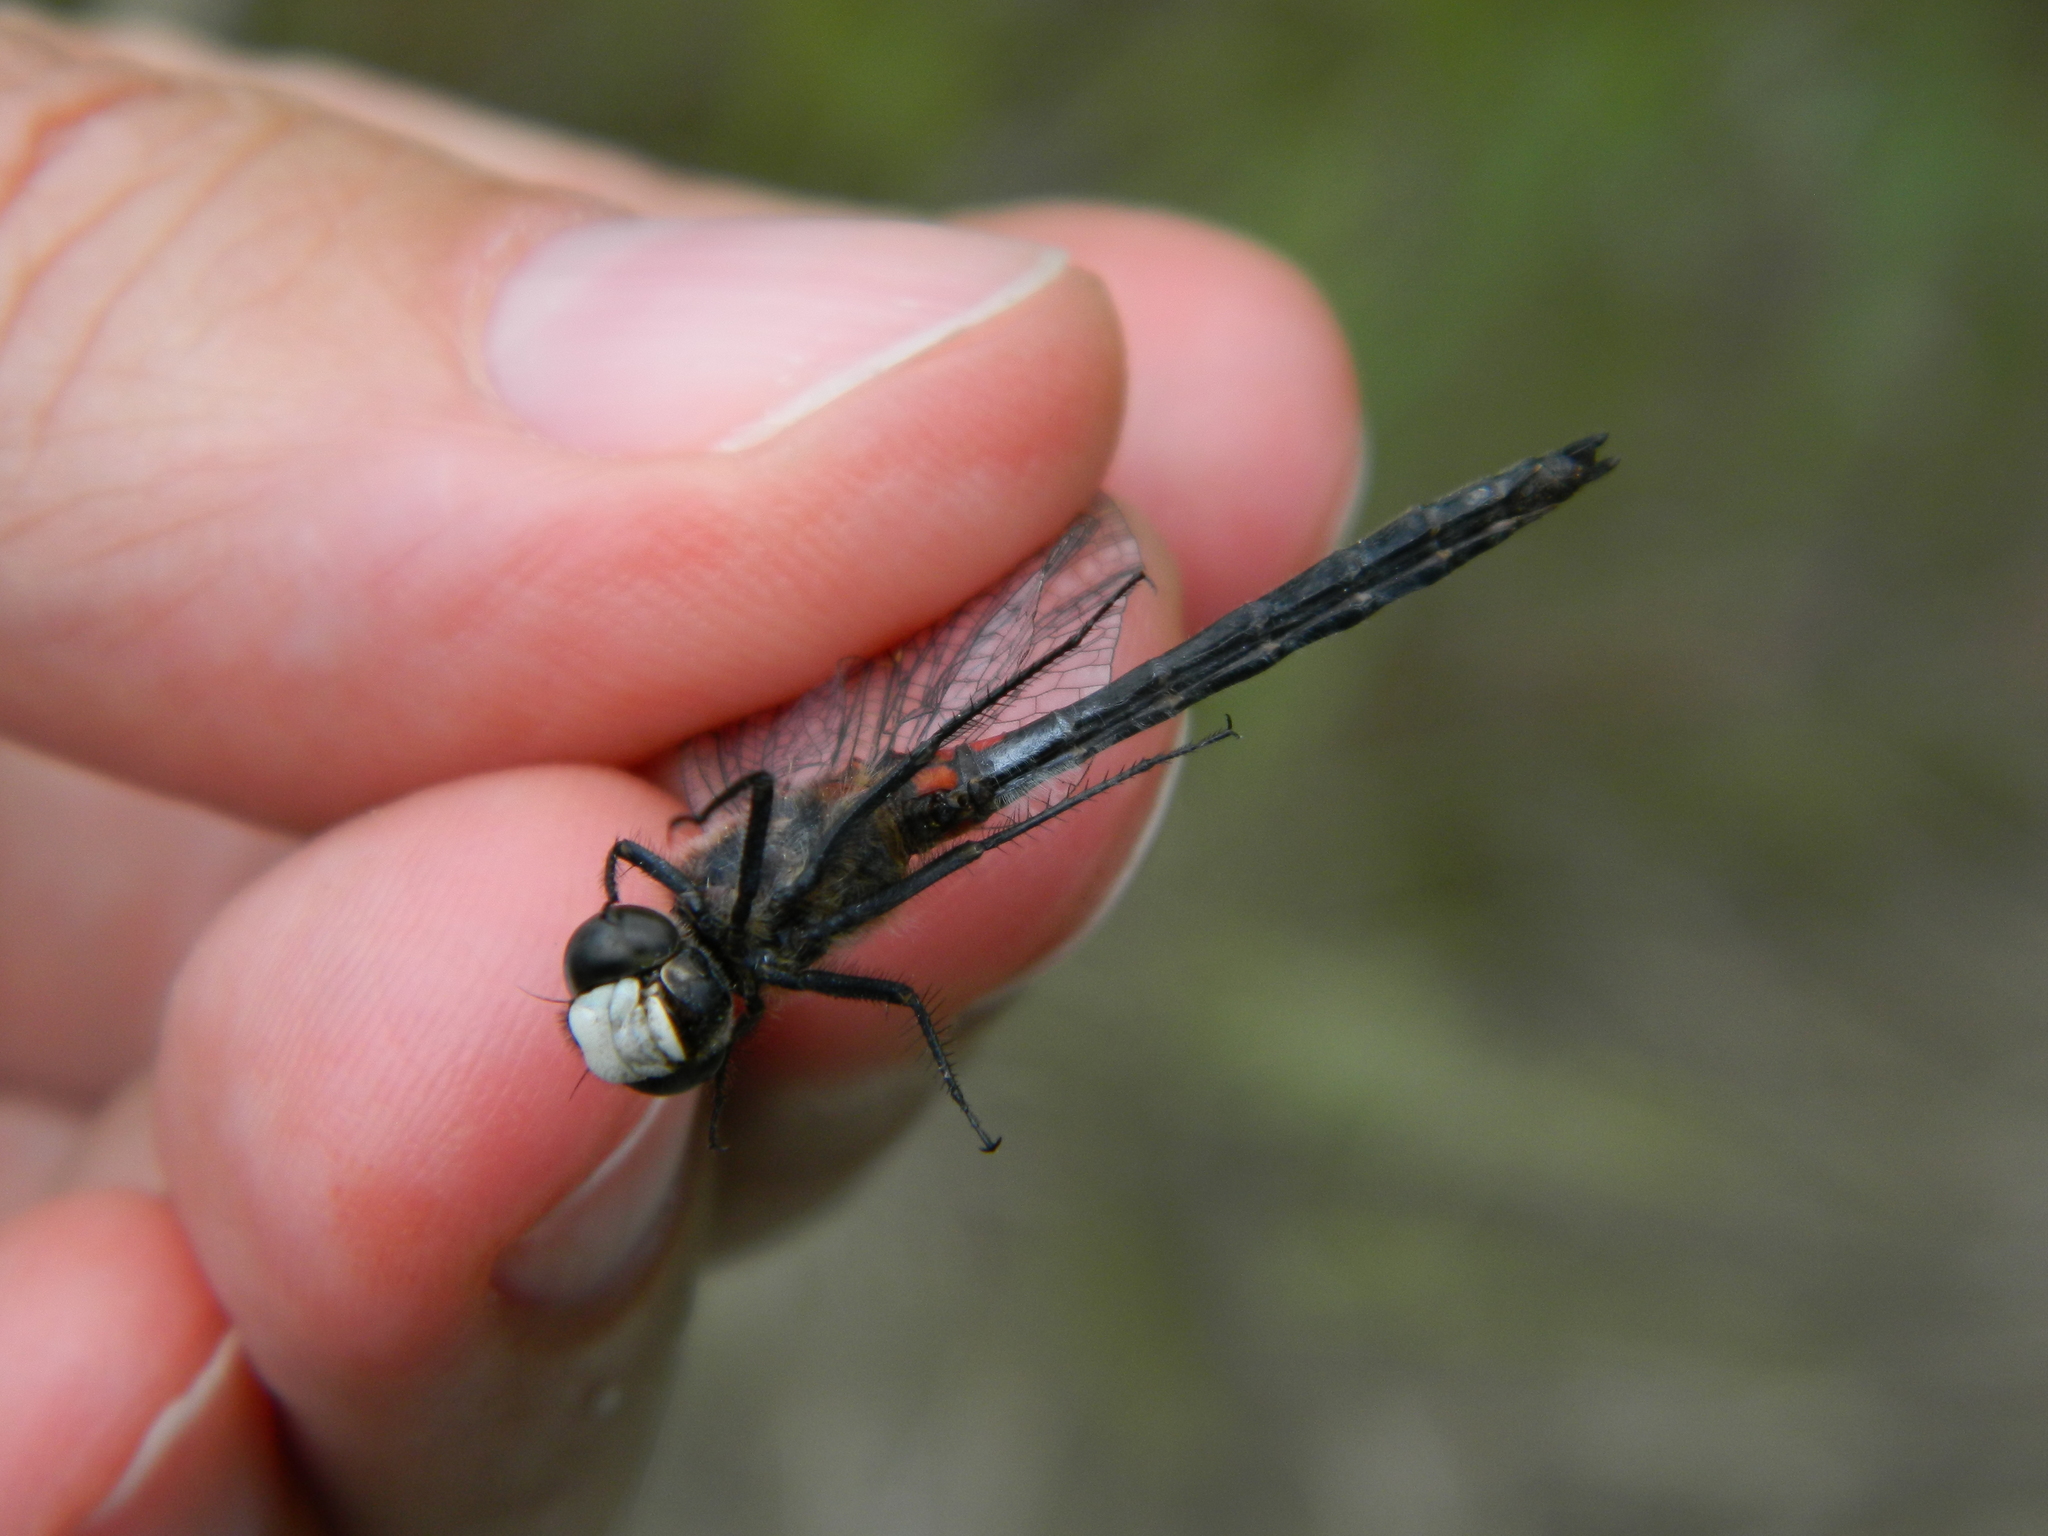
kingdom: Animalia
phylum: Arthropoda
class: Insecta
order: Odonata
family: Libellulidae
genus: Leucorrhinia
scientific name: Leucorrhinia hudsonica
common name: Hudsonian whiteface
